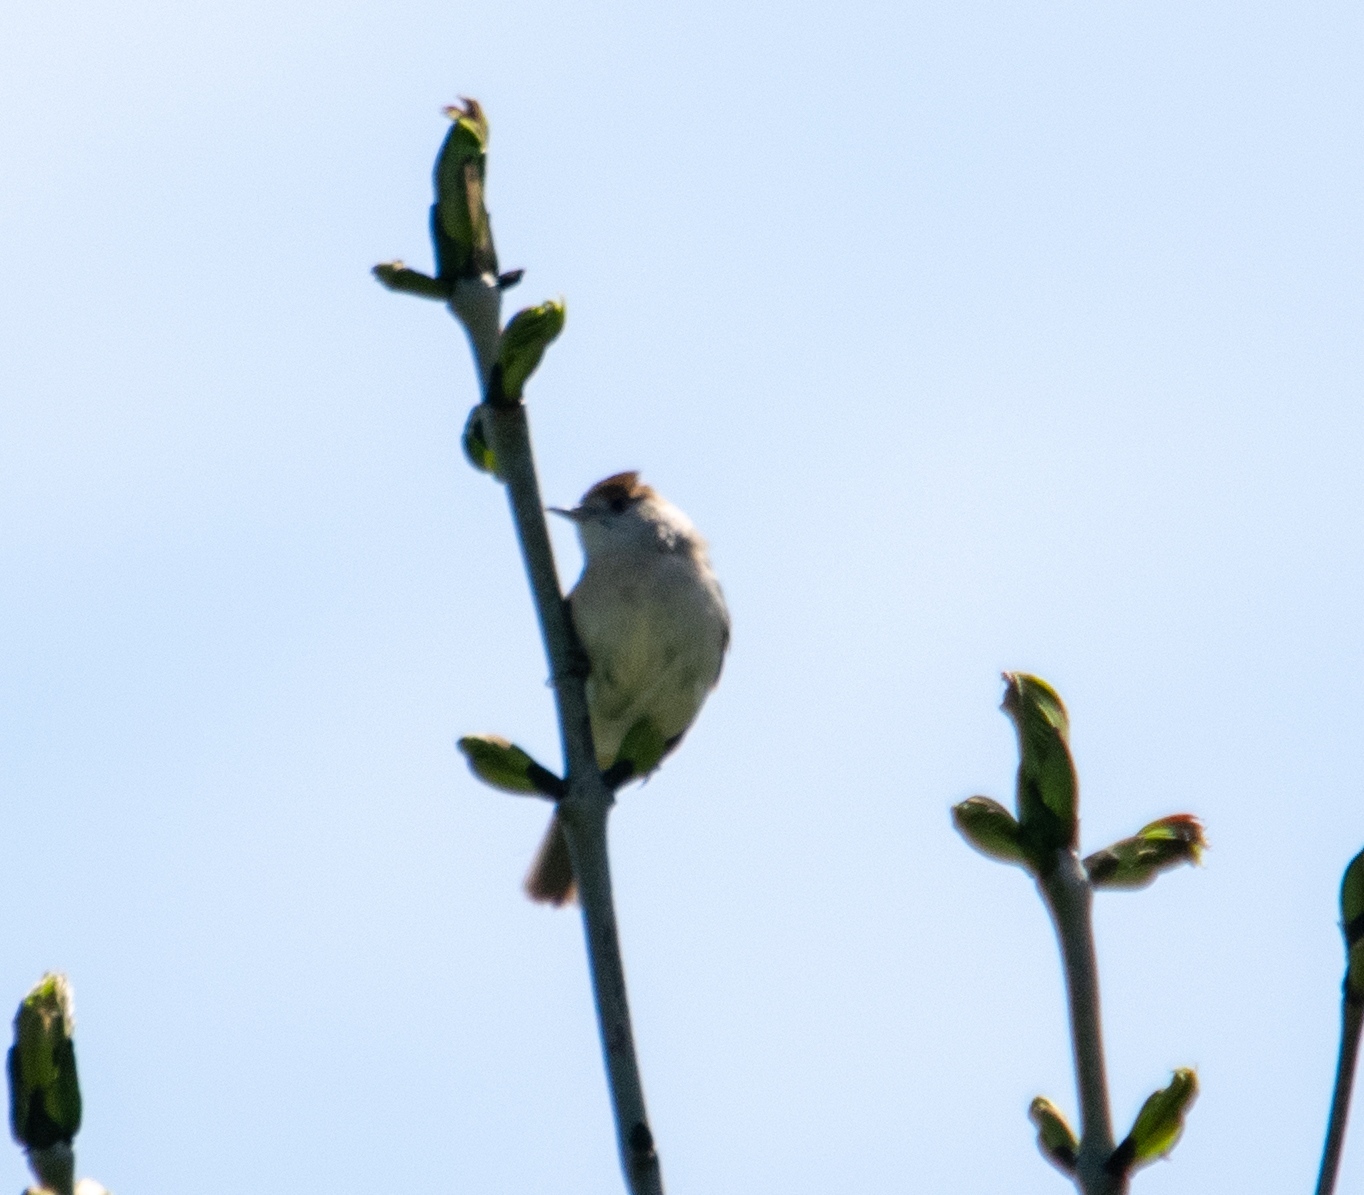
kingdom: Animalia
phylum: Chordata
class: Aves
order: Passeriformes
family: Sylviidae
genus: Sylvia
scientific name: Sylvia atricapilla
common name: Eurasian blackcap
